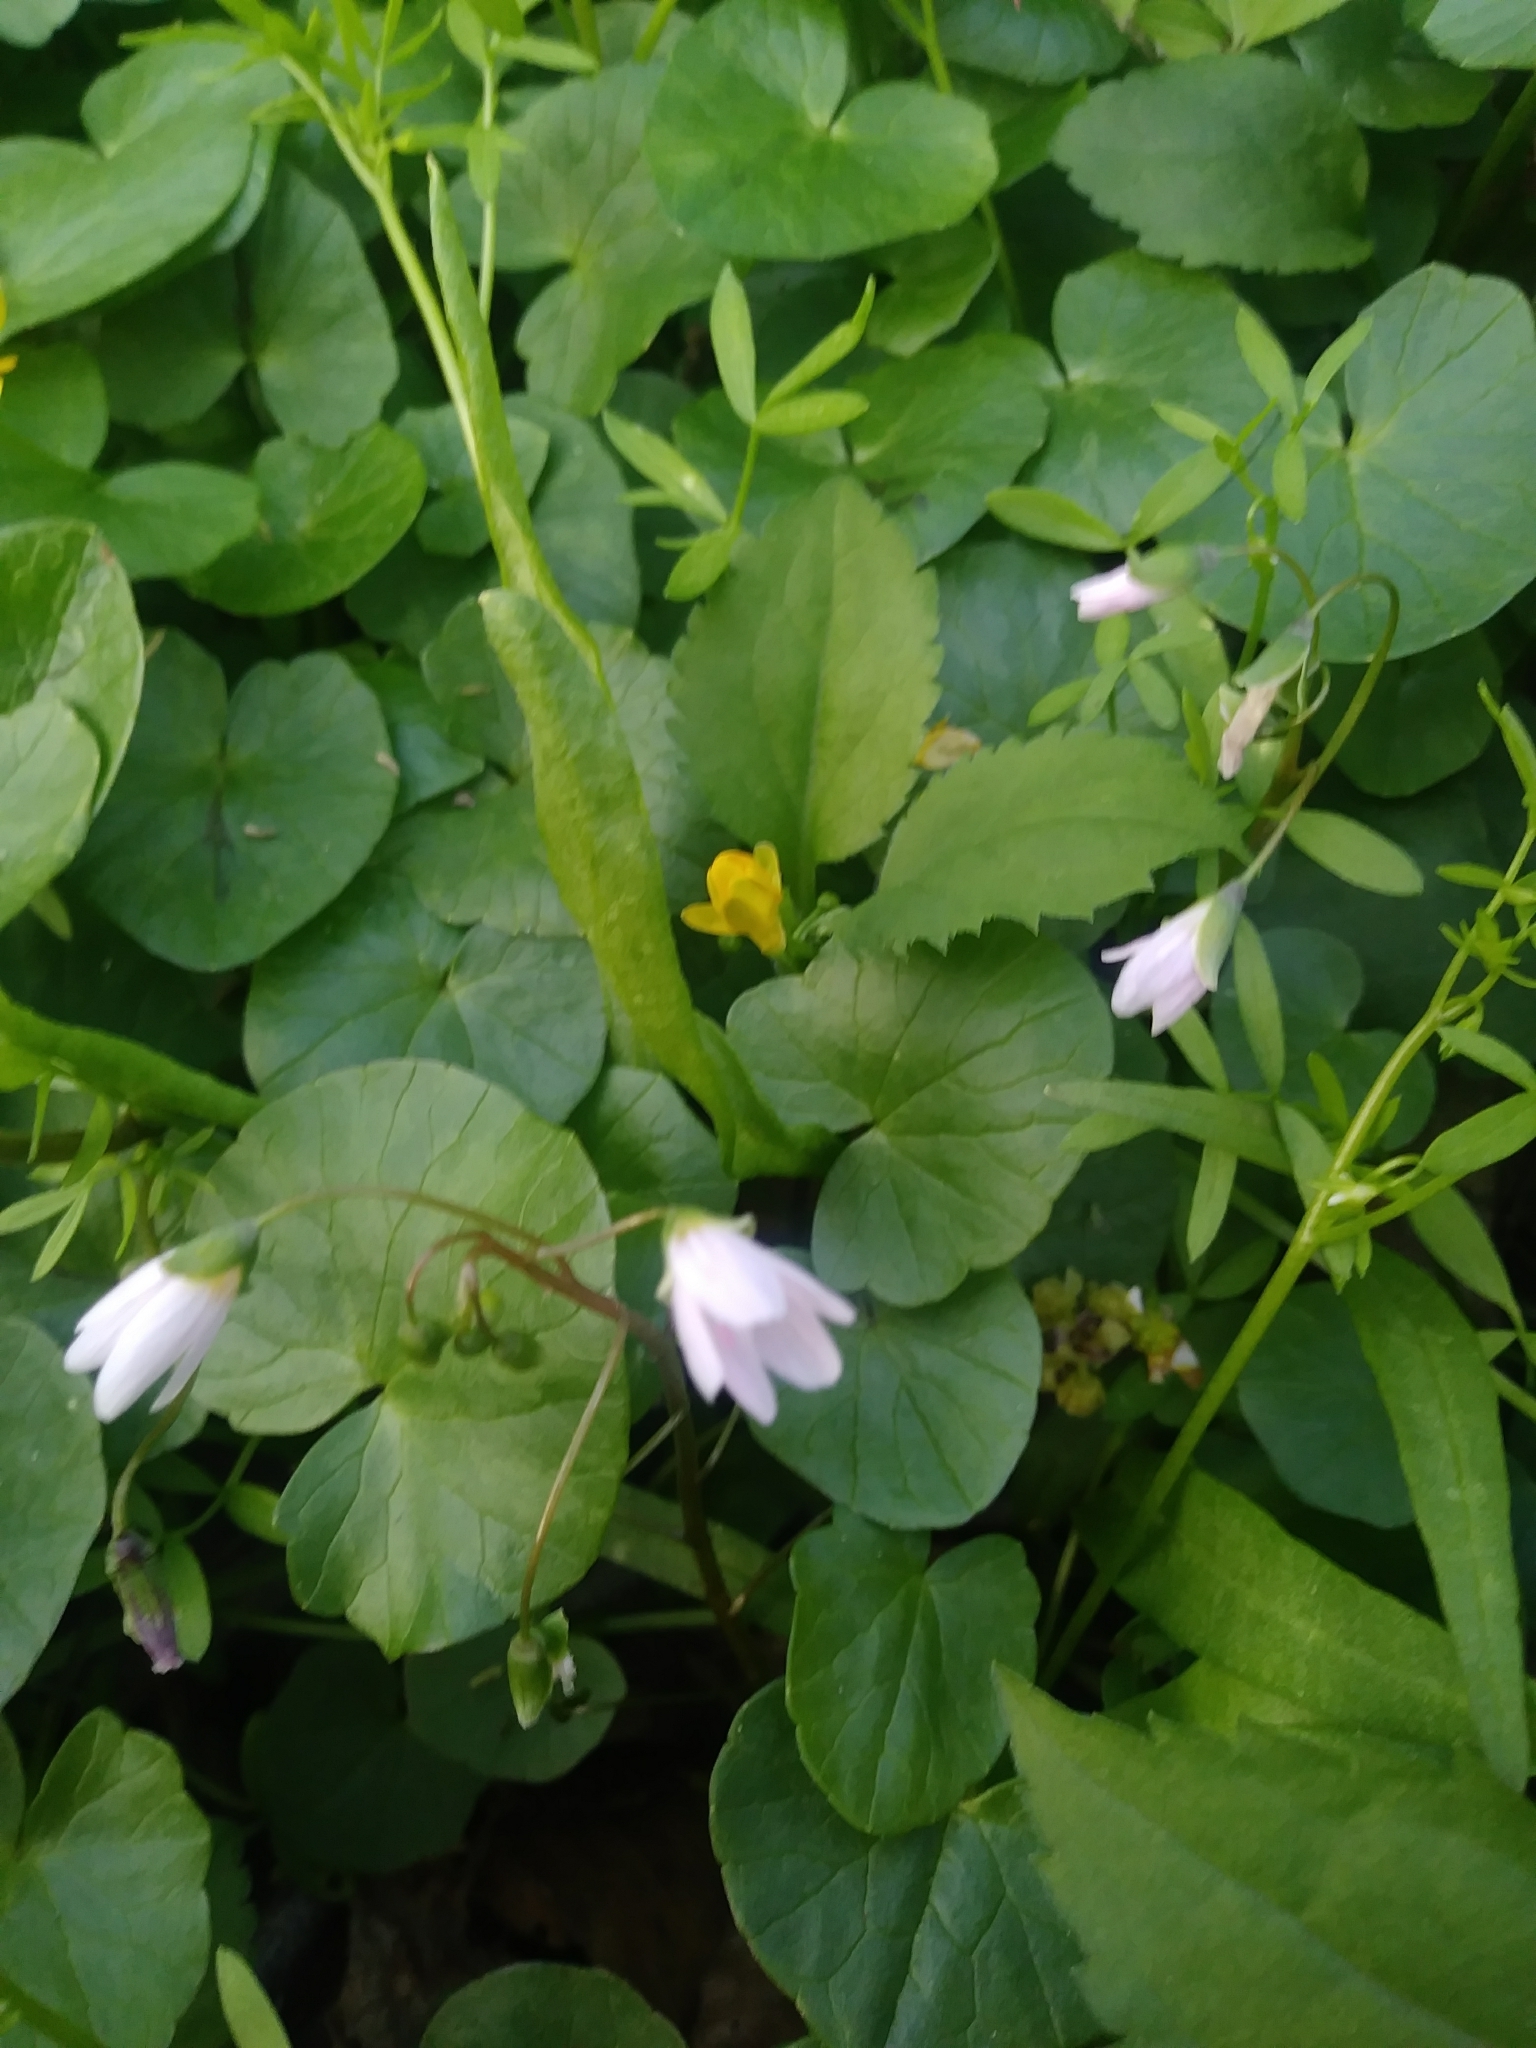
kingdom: Plantae
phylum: Tracheophyta
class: Magnoliopsida
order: Caryophyllales
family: Montiaceae
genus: Claytonia
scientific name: Claytonia virginica
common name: Virginia springbeauty
